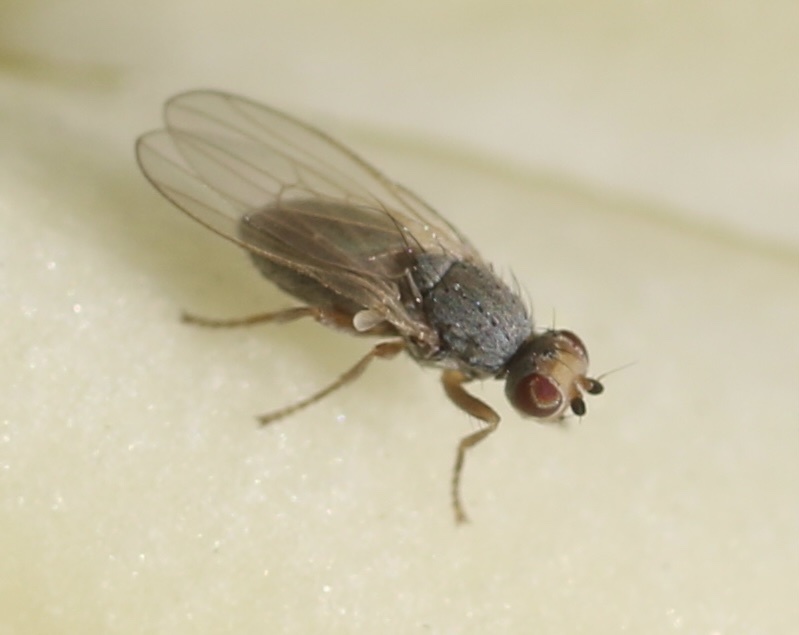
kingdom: Animalia
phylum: Arthropoda
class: Insecta
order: Diptera
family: Heleomyzidae
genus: Trixoscelis
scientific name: Trixoscelis cinerea
